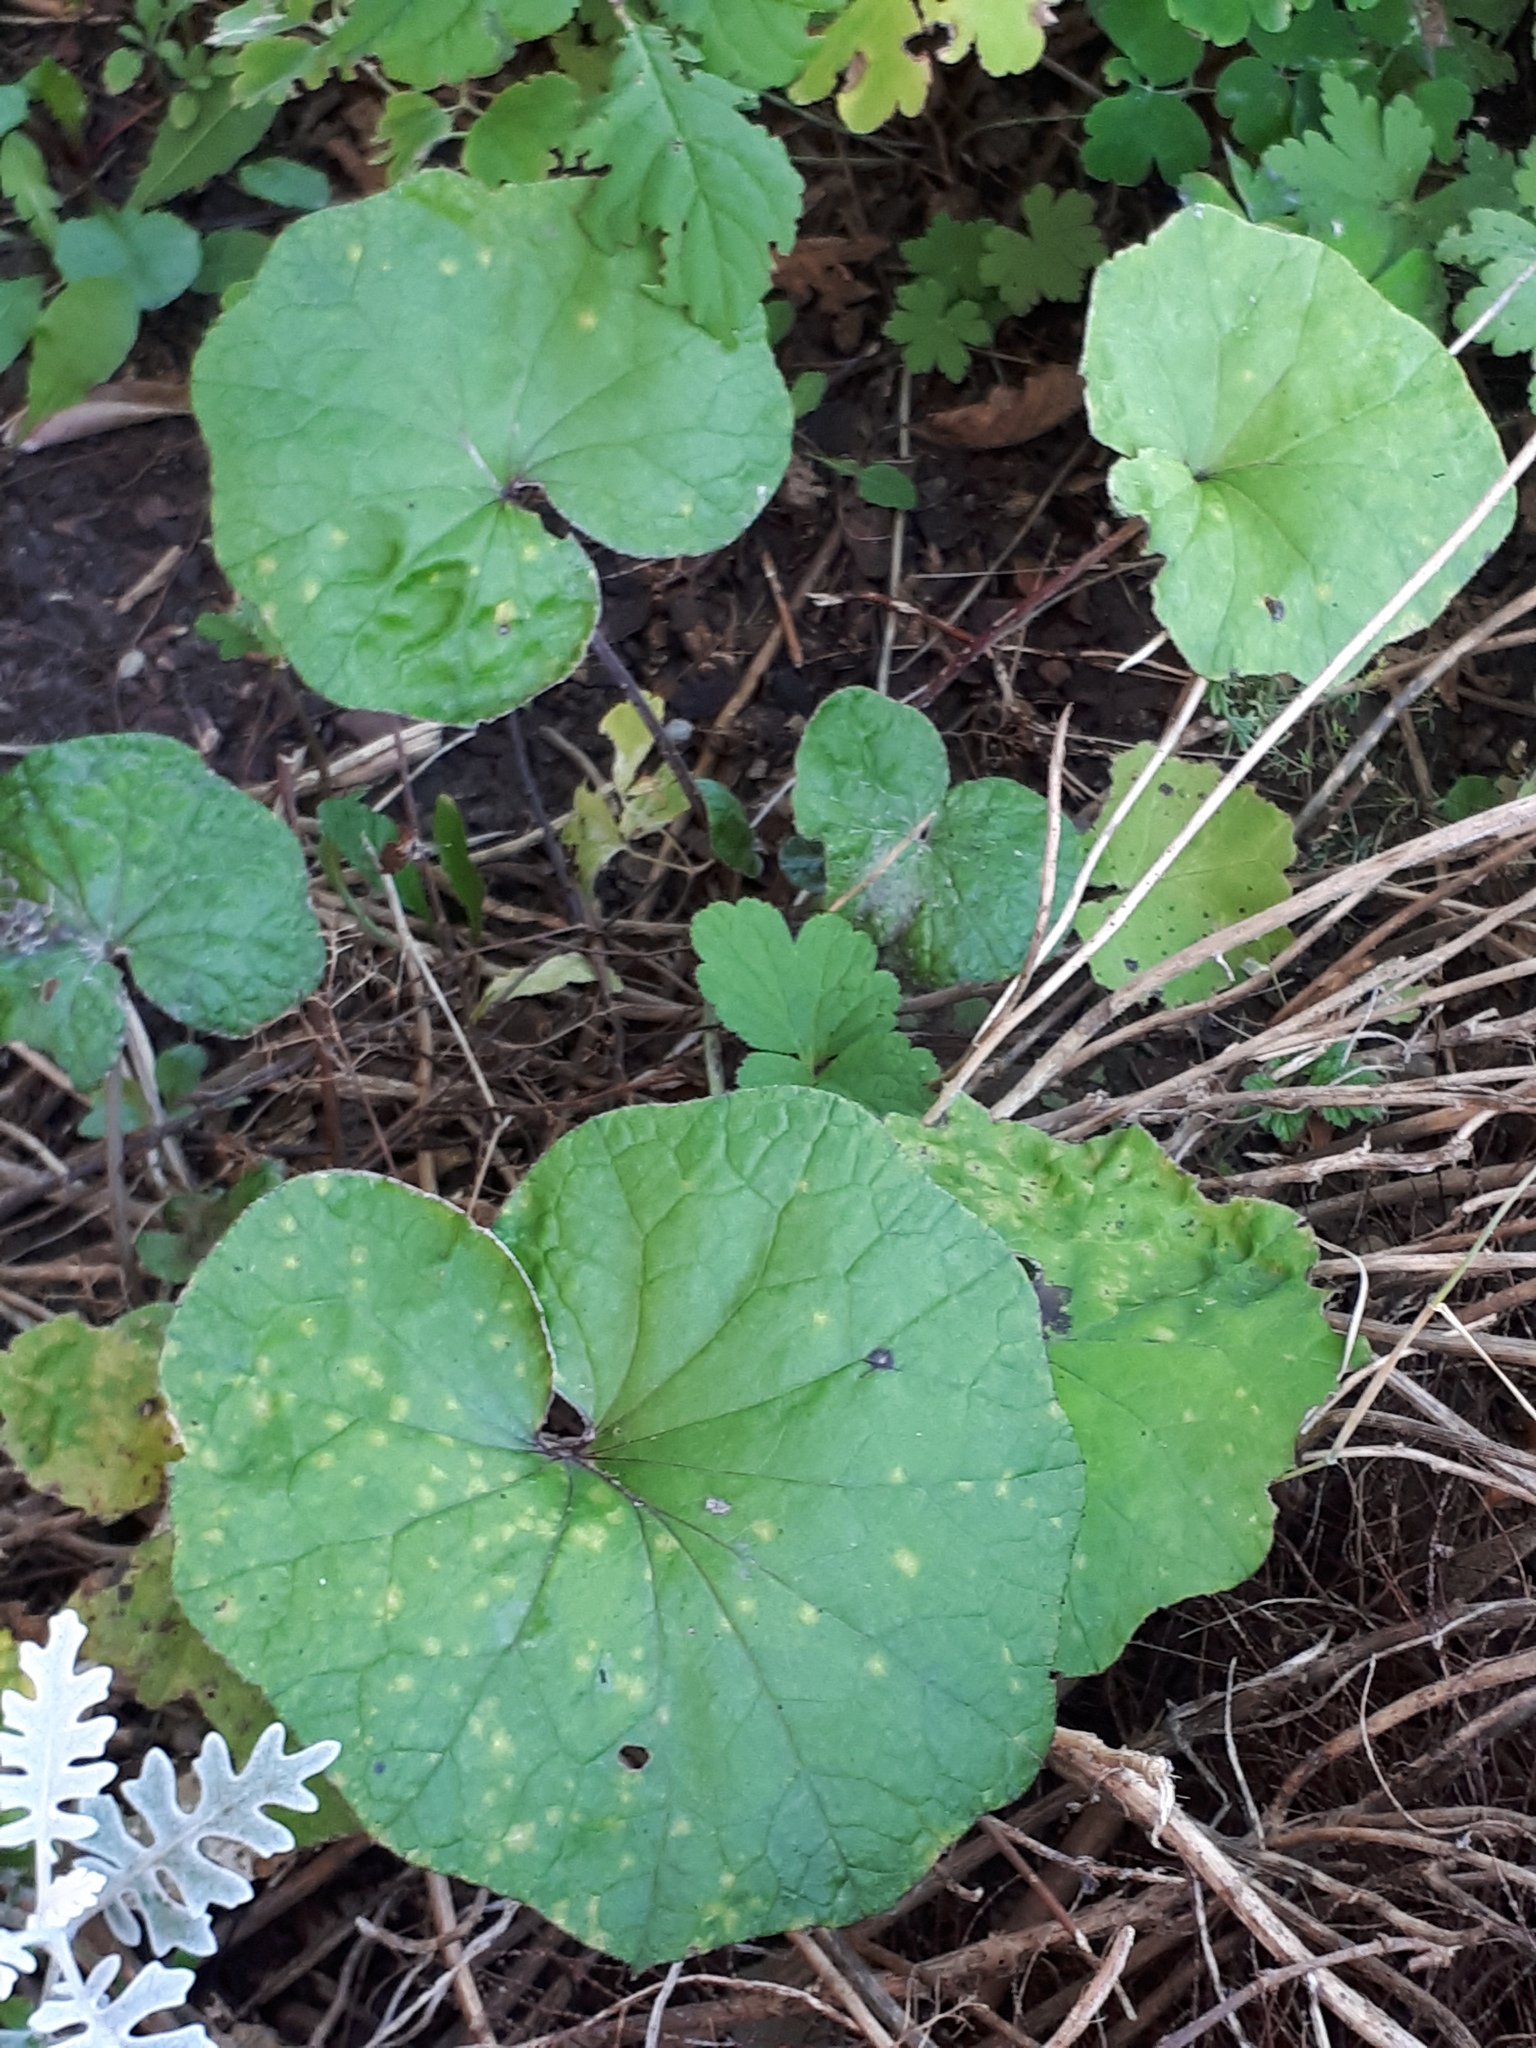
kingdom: Plantae
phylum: Tracheophyta
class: Magnoliopsida
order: Asterales
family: Asteraceae
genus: Tussilago
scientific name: Tussilago farfara
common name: Coltsfoot
